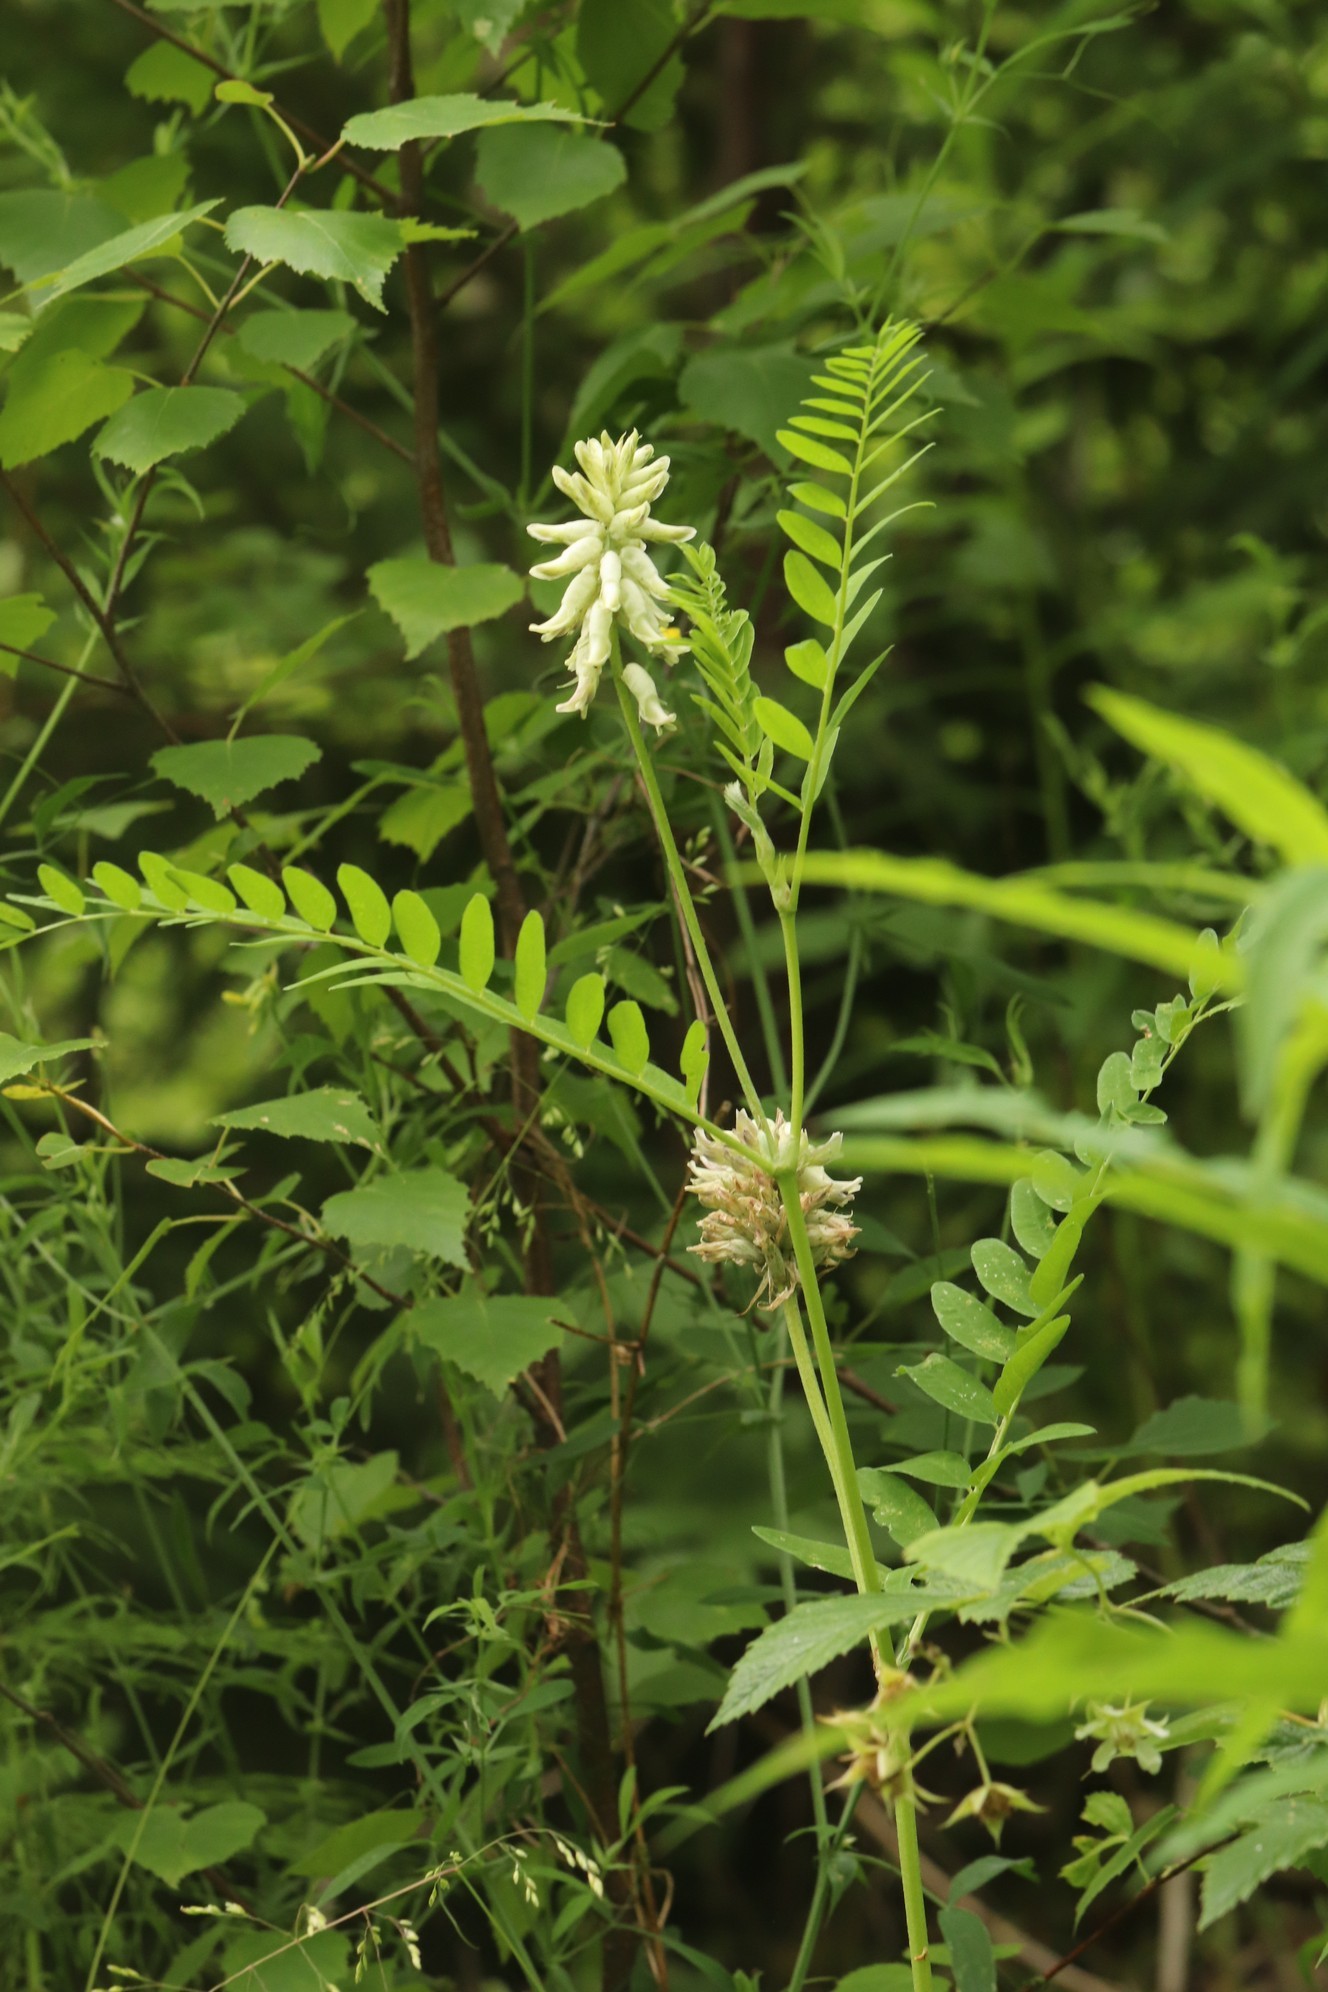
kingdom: Plantae
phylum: Tracheophyta
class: Magnoliopsida
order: Fabales
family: Fabaceae
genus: Astragalus
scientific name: Astragalus uliginosus
